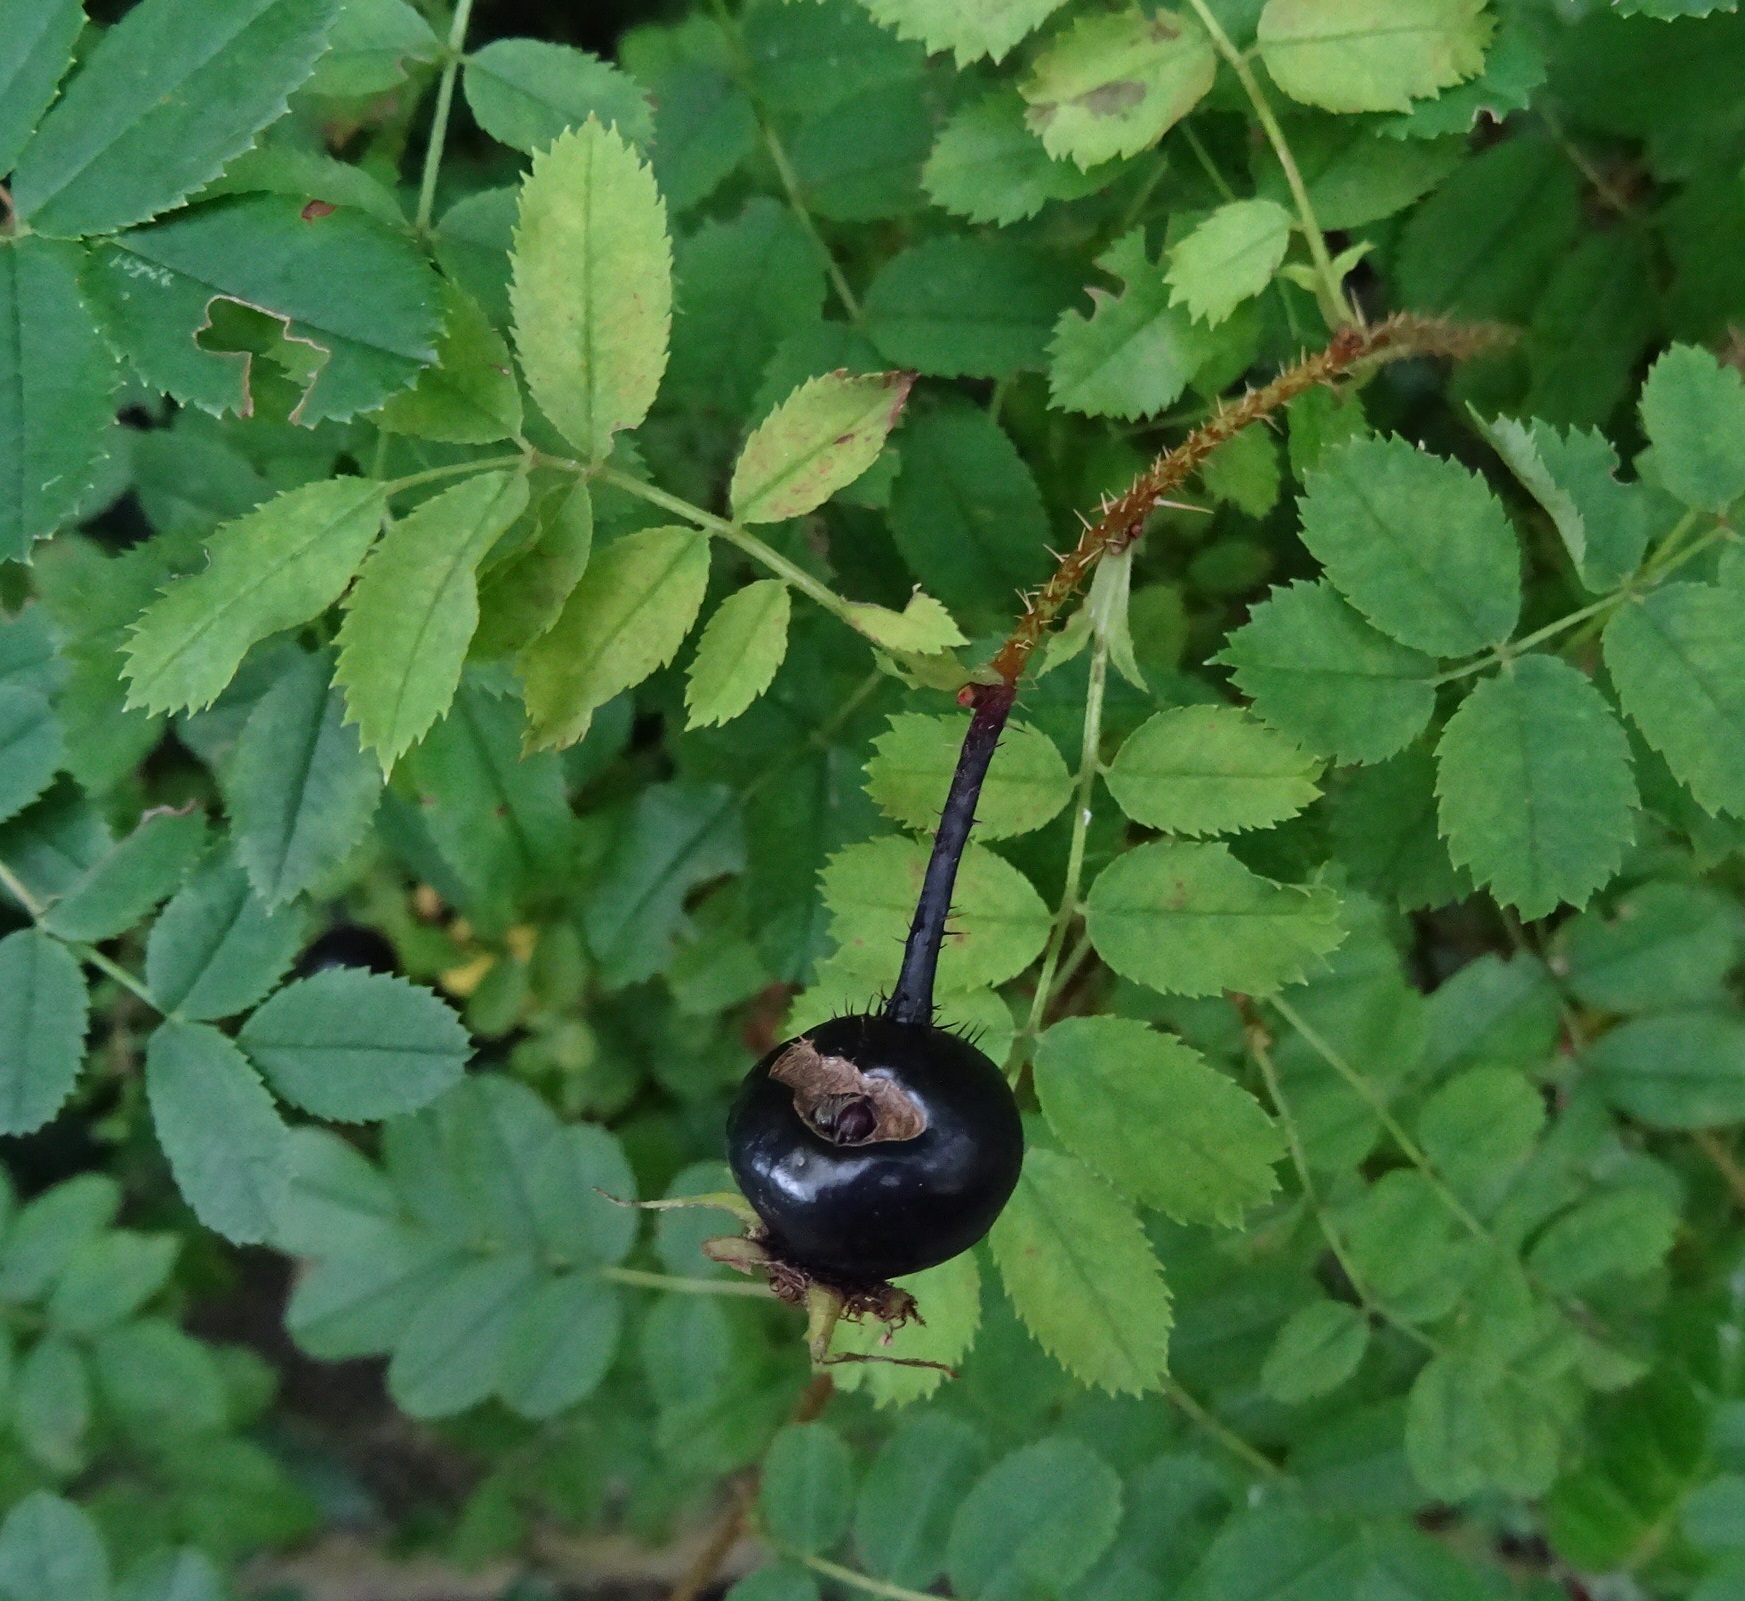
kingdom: Plantae
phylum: Tracheophyta
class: Magnoliopsida
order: Rosales
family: Rosaceae
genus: Rosa
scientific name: Rosa spinosissima
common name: Burnet rose
